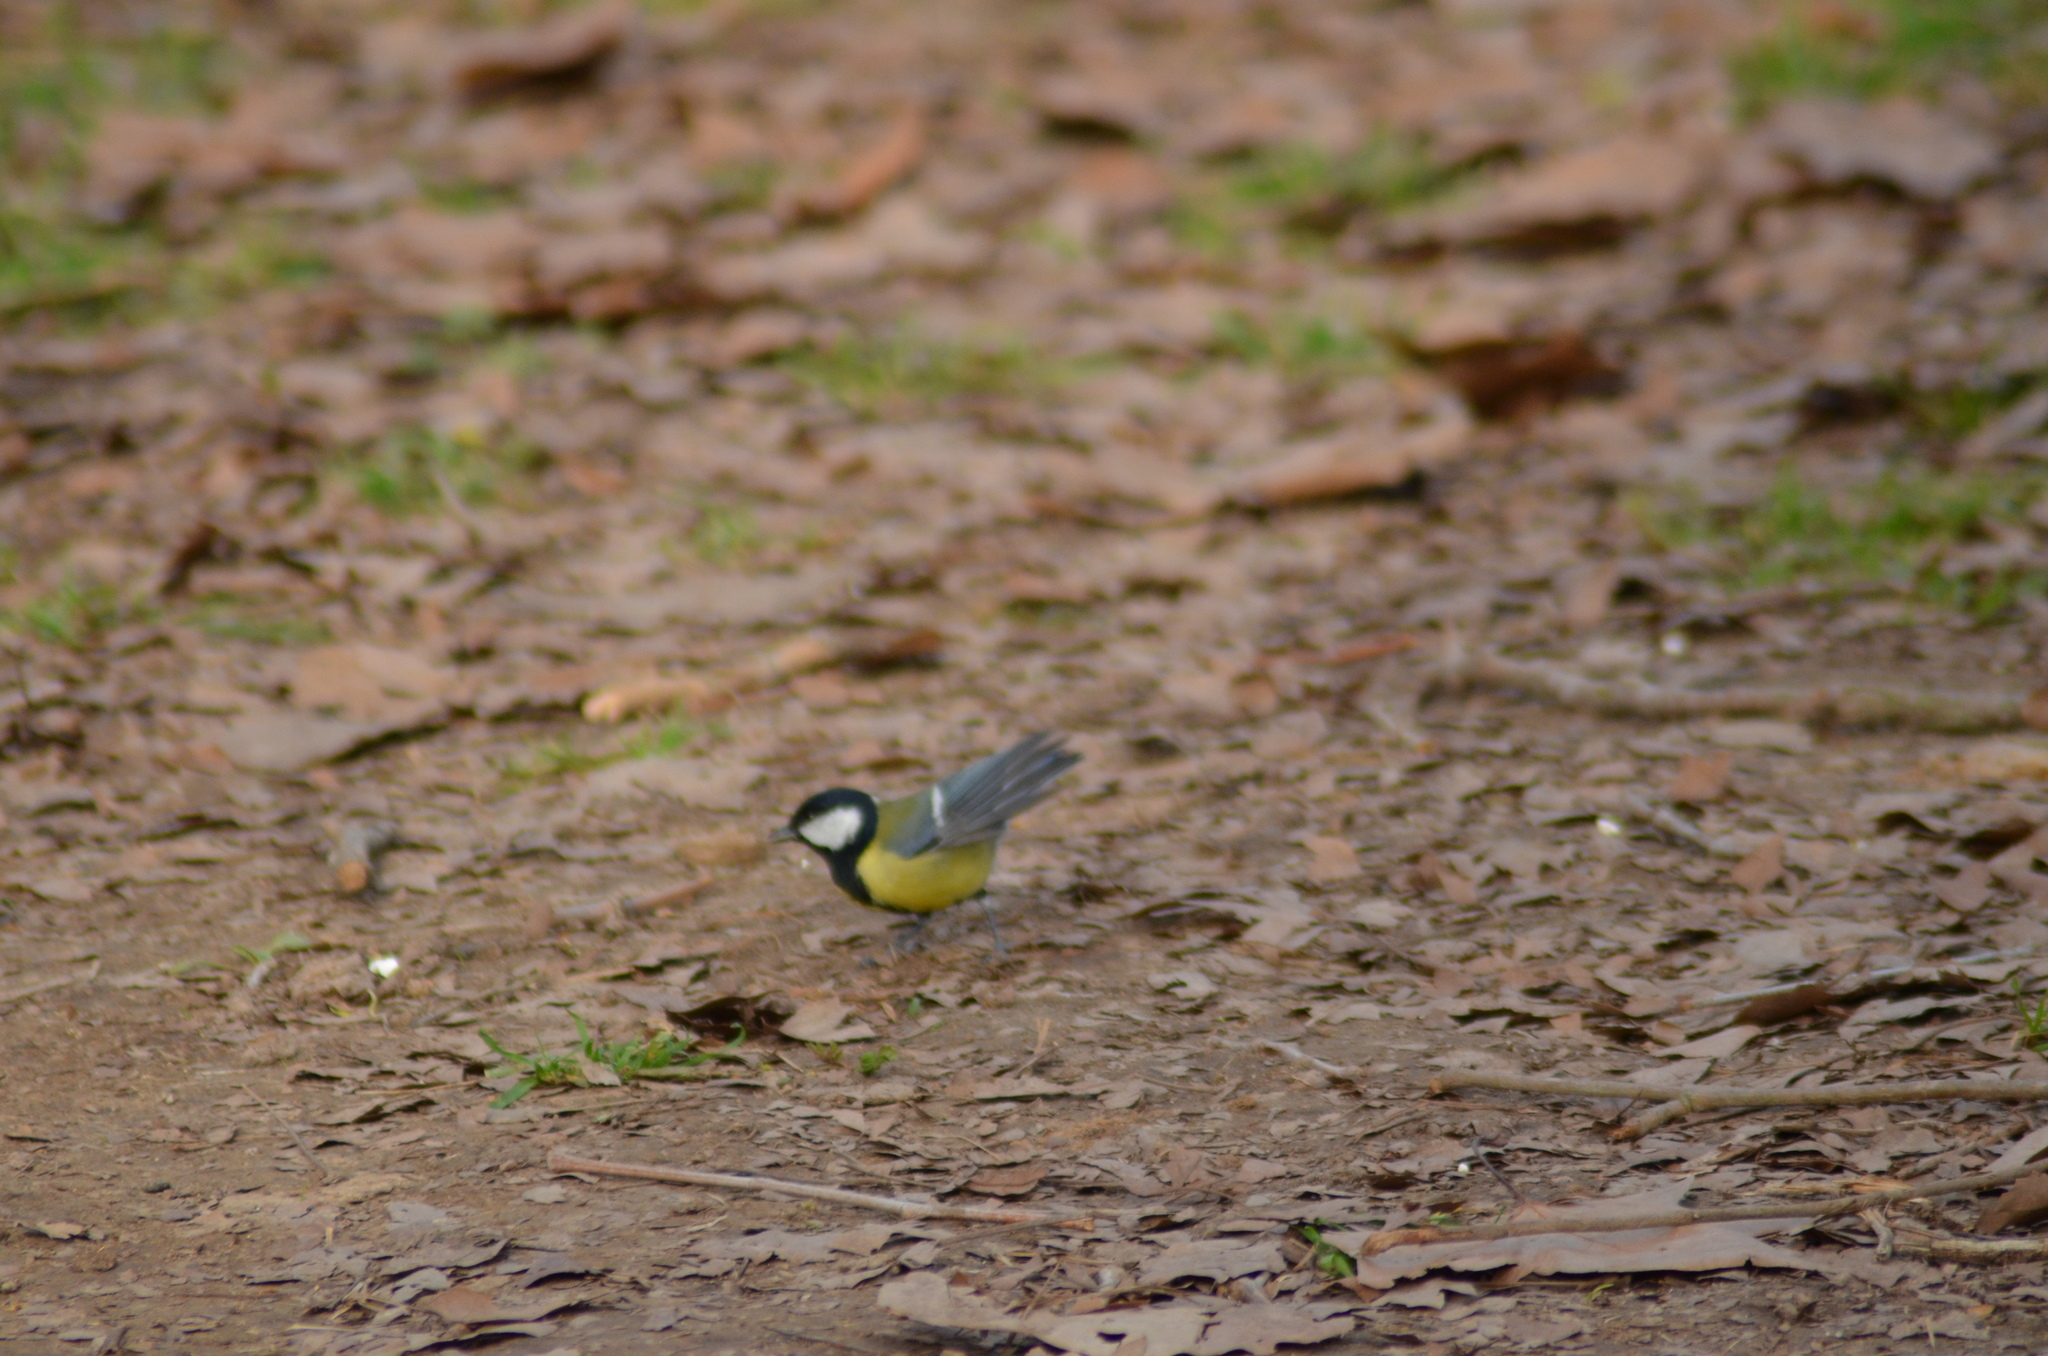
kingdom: Animalia
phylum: Chordata
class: Aves
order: Passeriformes
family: Paridae
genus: Parus
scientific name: Parus major
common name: Great tit
